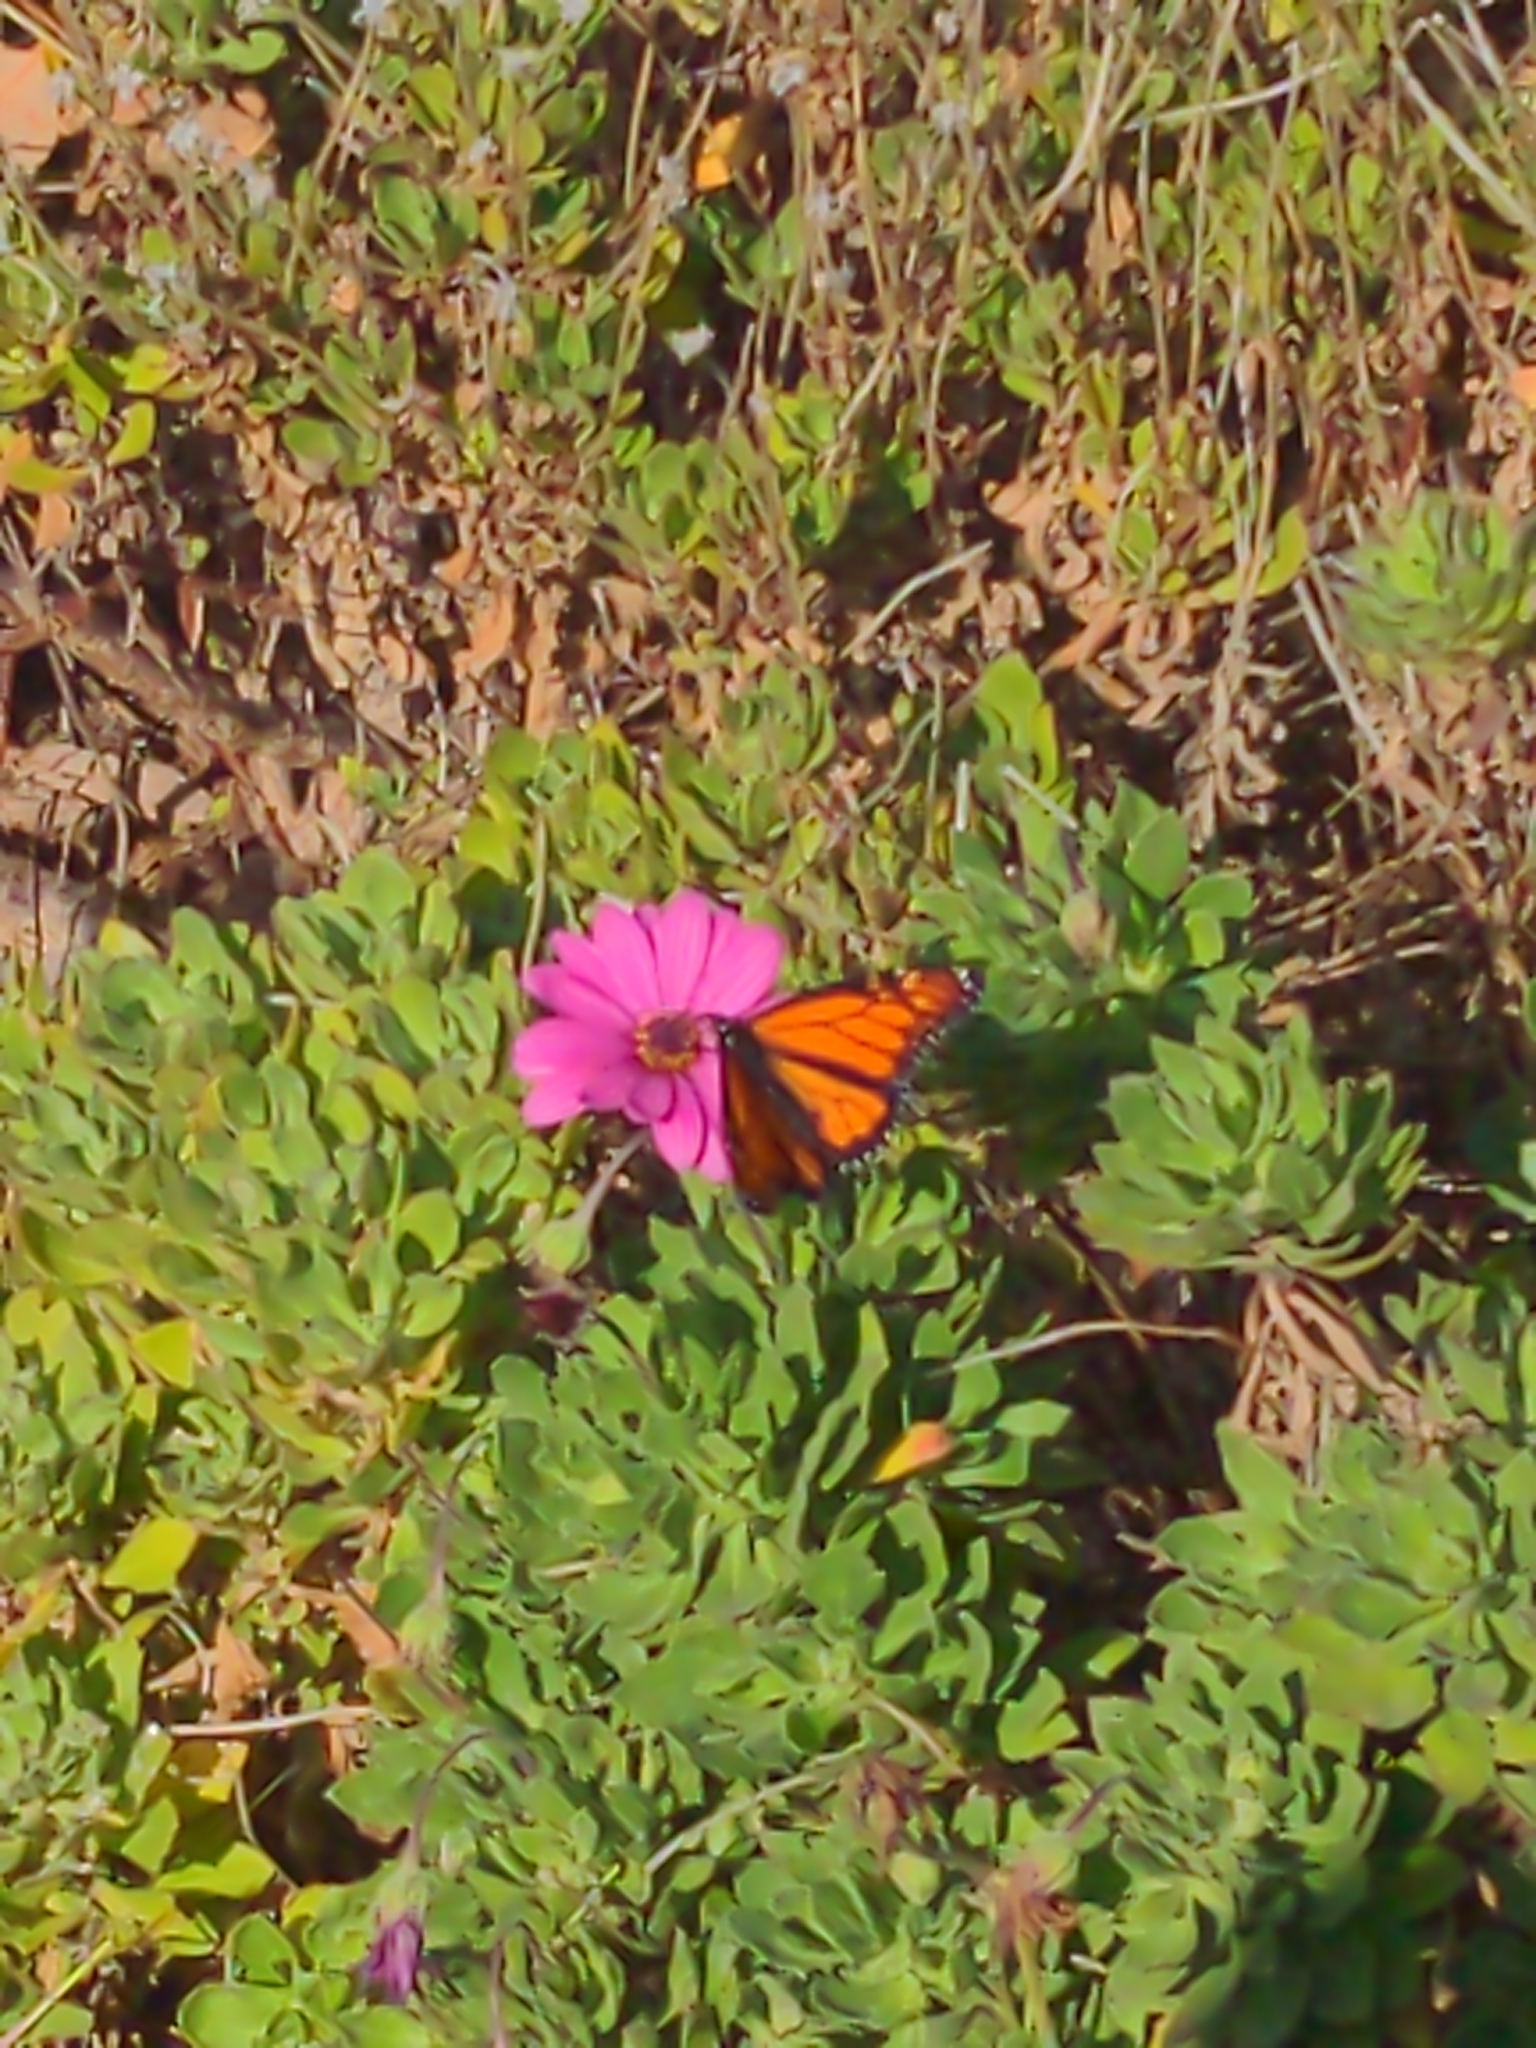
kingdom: Animalia
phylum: Arthropoda
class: Insecta
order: Lepidoptera
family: Nymphalidae
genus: Danaus
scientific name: Danaus plexippus
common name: Monarch
